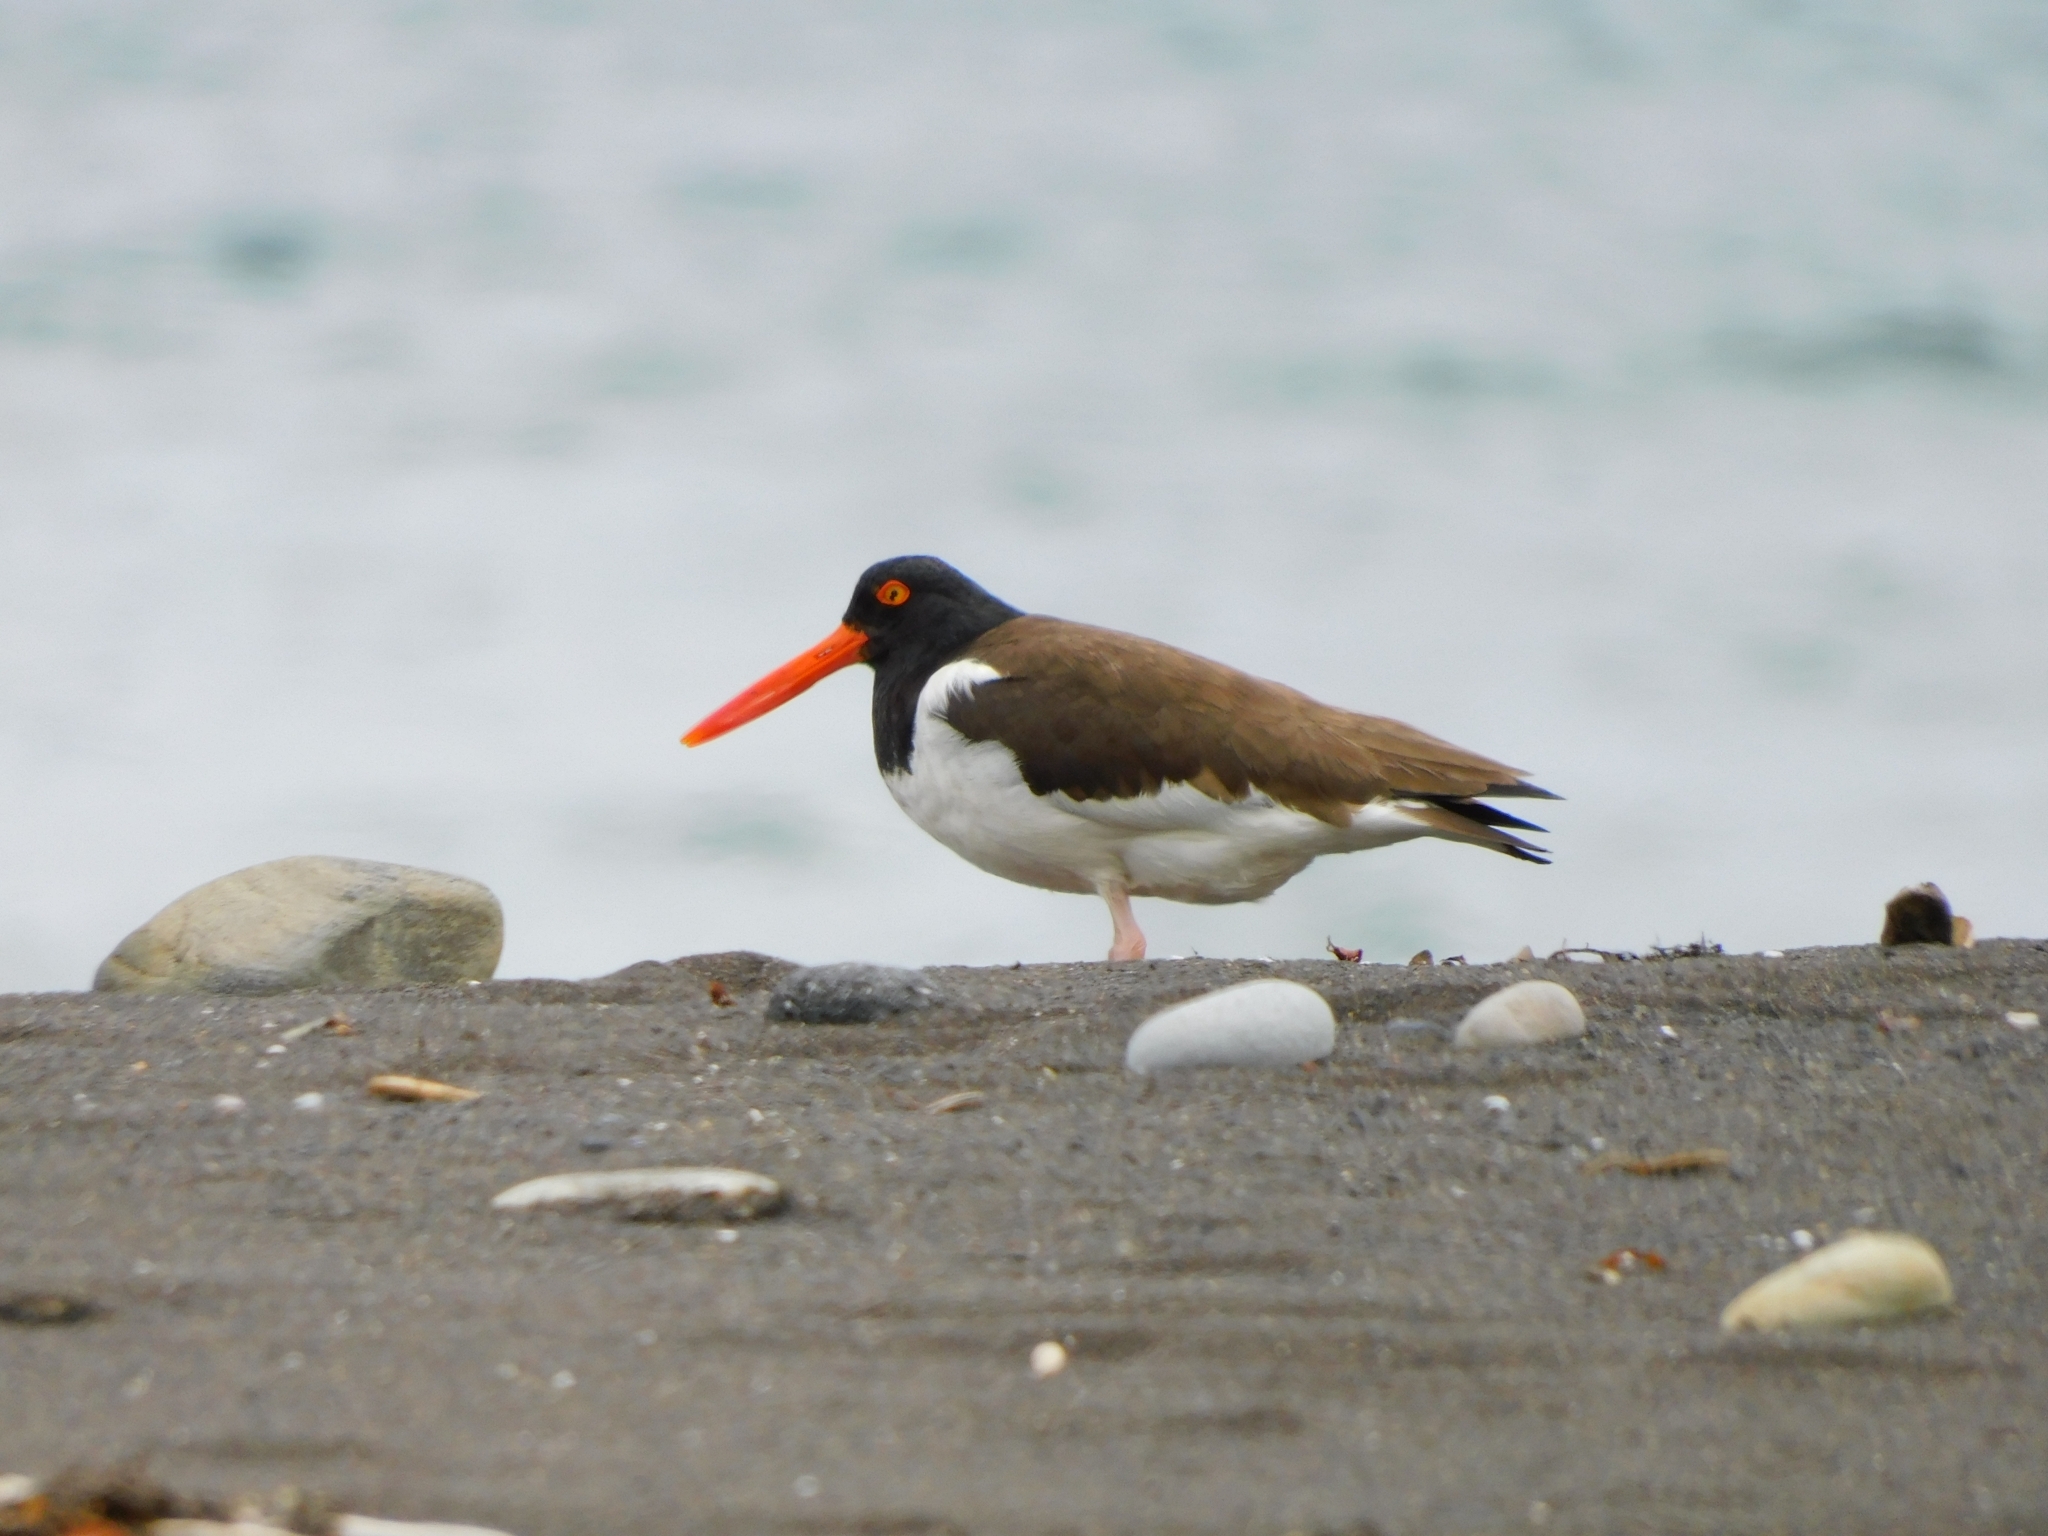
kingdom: Animalia
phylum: Chordata
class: Aves
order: Charadriiformes
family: Haematopodidae
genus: Haematopus
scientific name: Haematopus palliatus
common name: American oystercatcher
